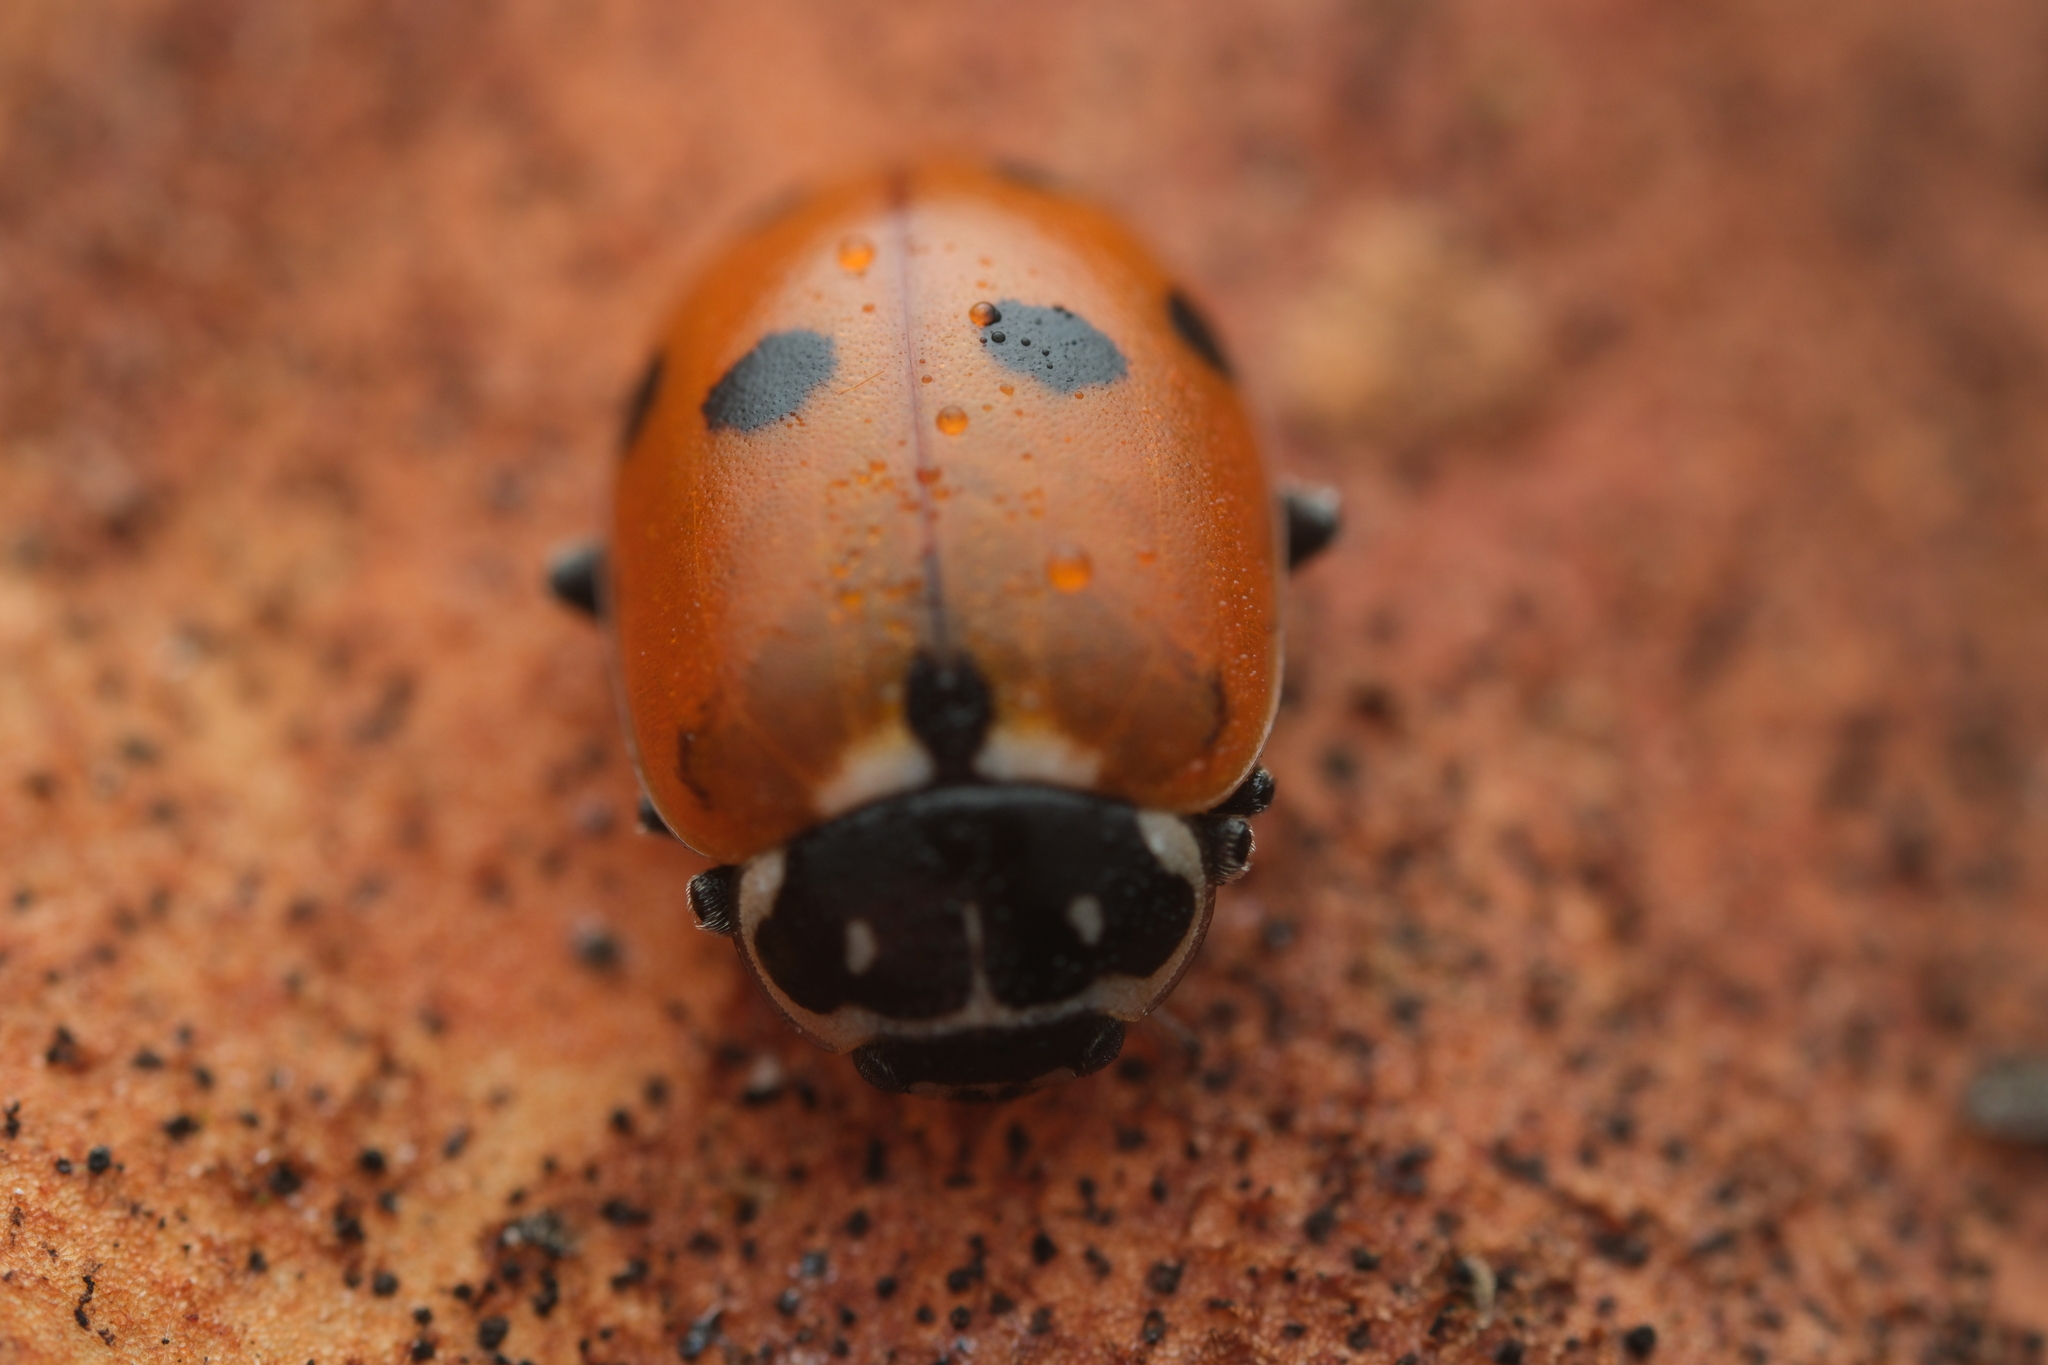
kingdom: Animalia
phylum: Arthropoda
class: Insecta
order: Coleoptera
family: Coccinellidae
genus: Hippodamia
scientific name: Hippodamia variegata
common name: Ladybird beetle
